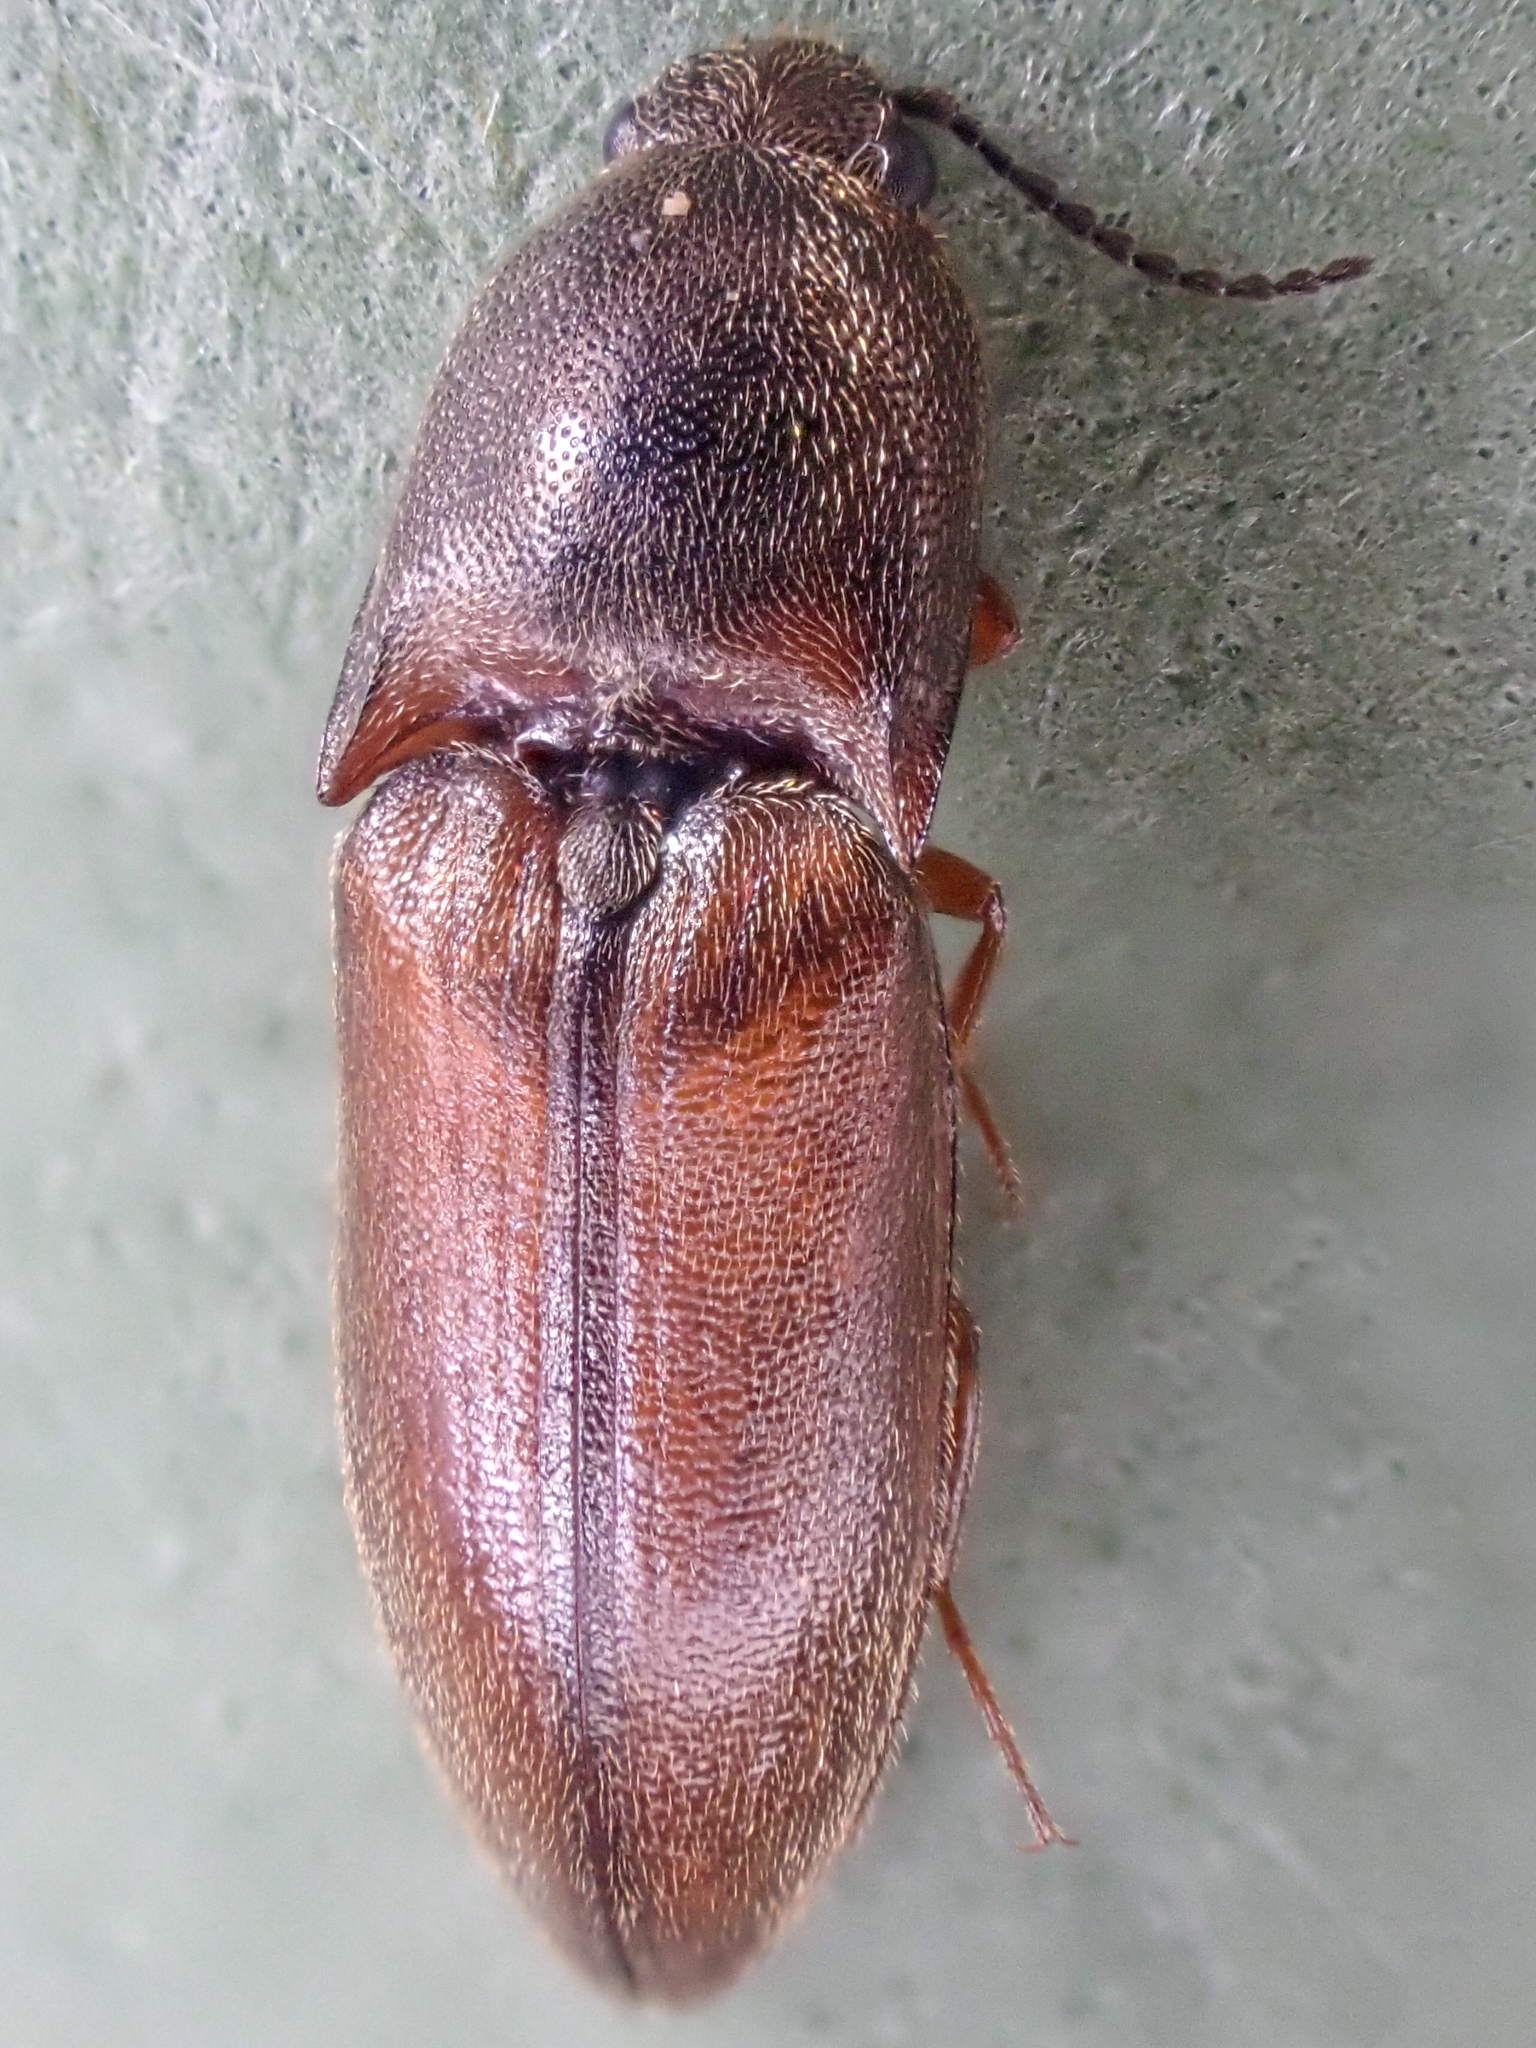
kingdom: Animalia
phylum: Arthropoda
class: Insecta
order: Coleoptera
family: Elateridae
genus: Sericus
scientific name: Sericus incongruus
